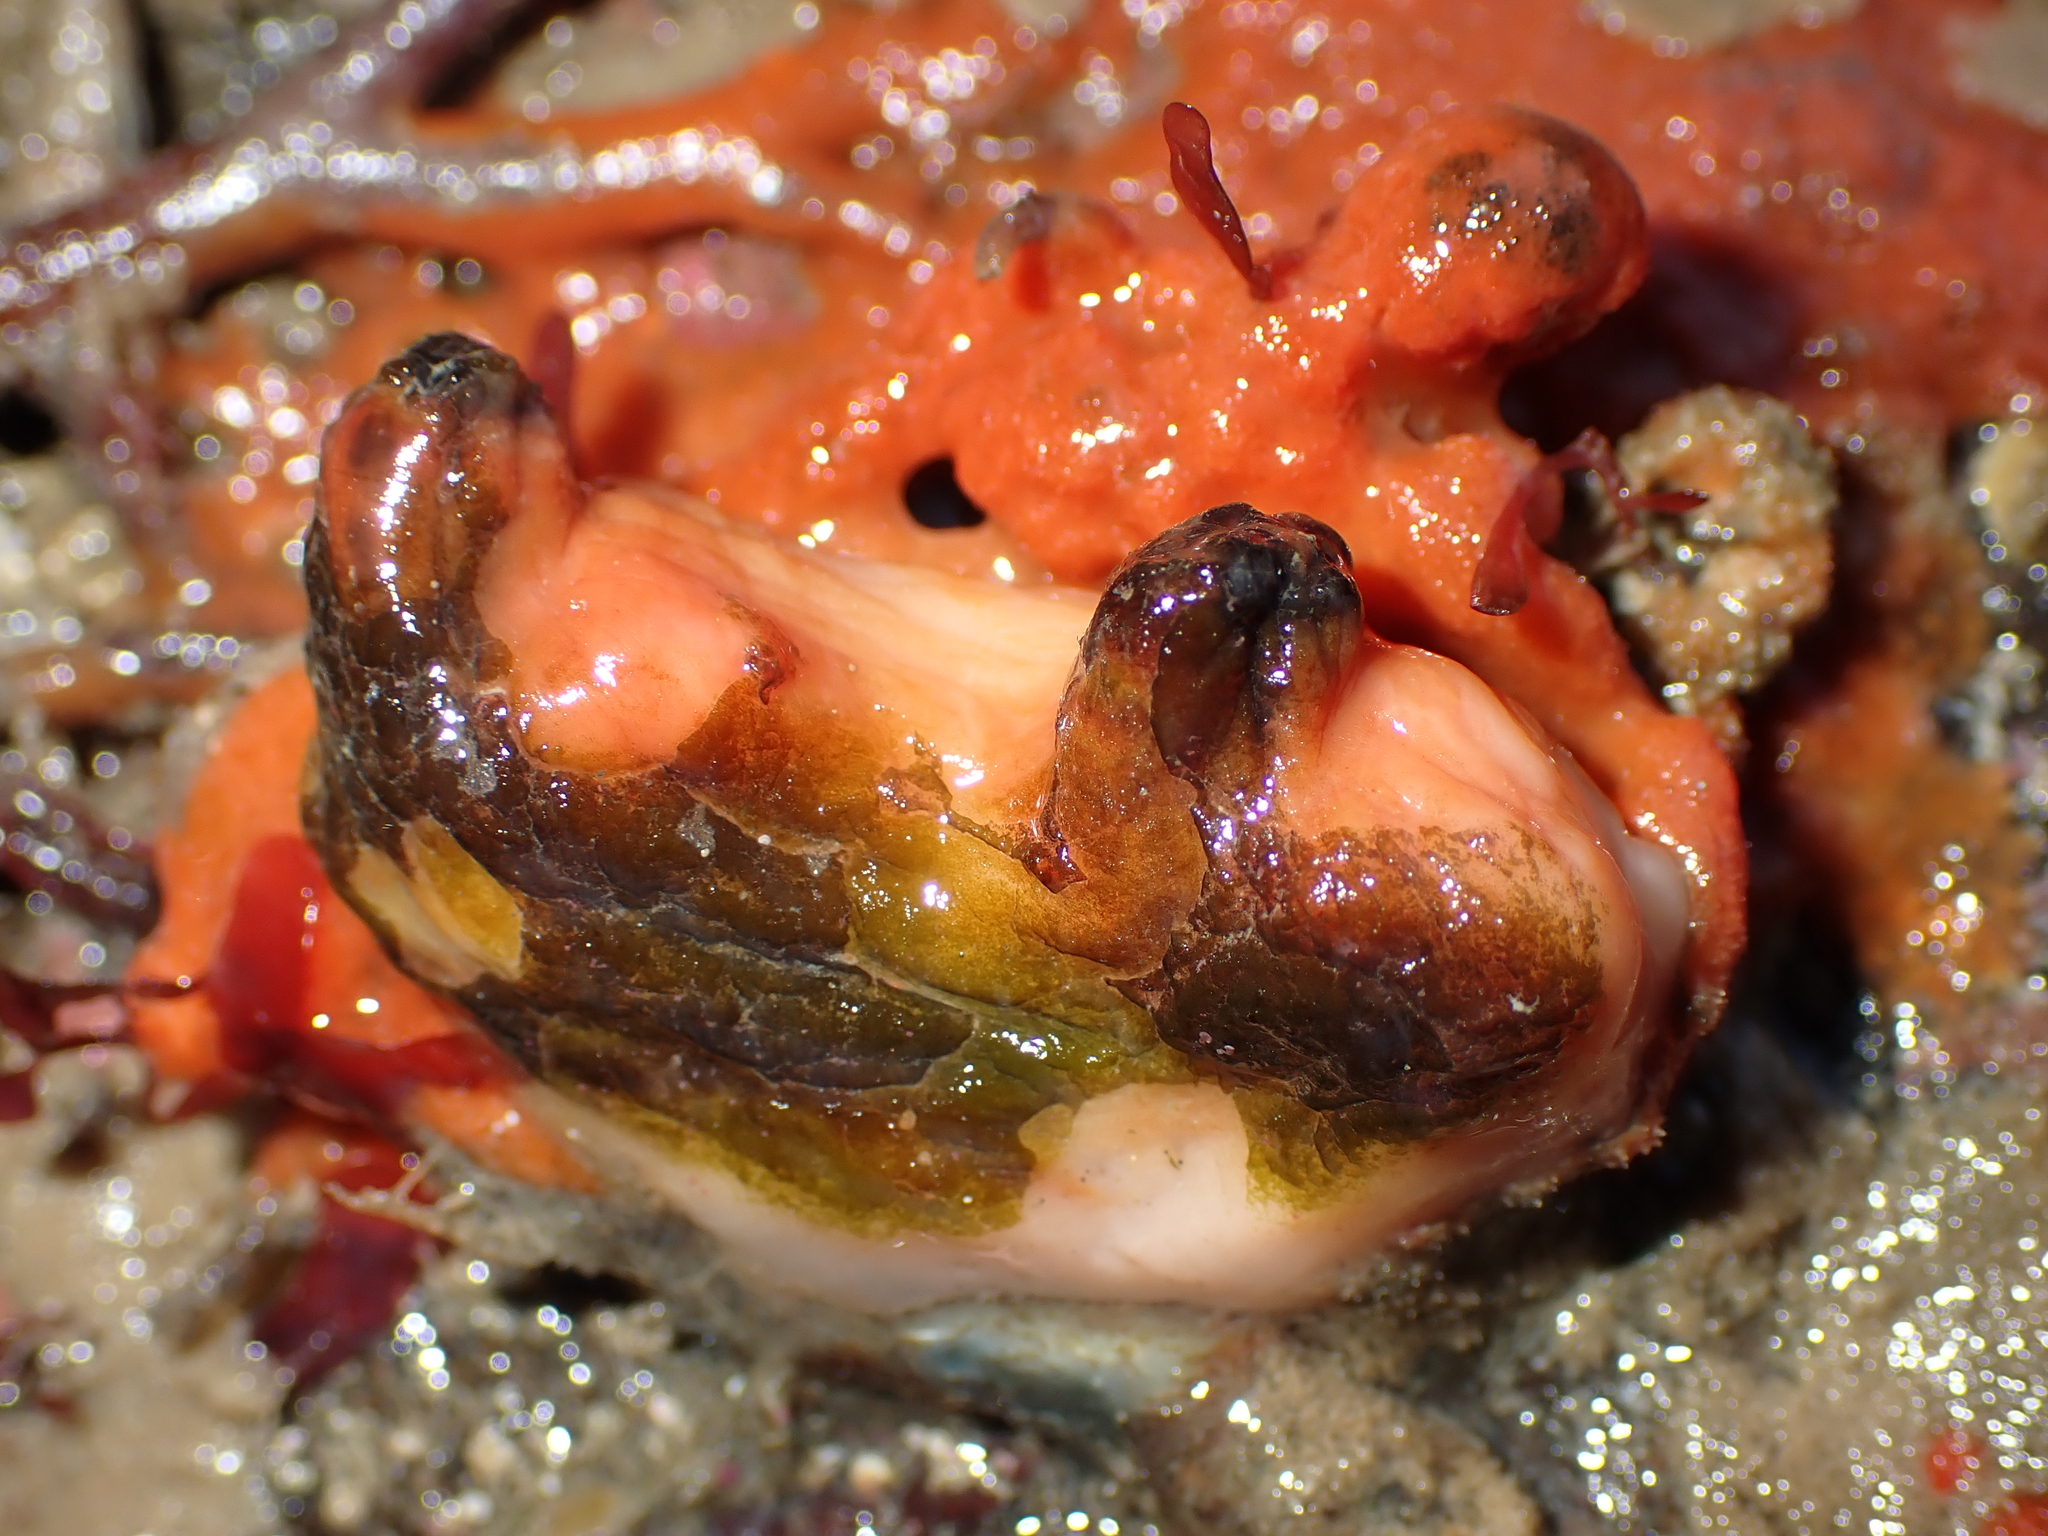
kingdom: Animalia
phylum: Chordata
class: Ascidiacea
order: Stolidobranchia
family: Styelidae
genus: Cnemidocarpa
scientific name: Cnemidocarpa bicornuta
